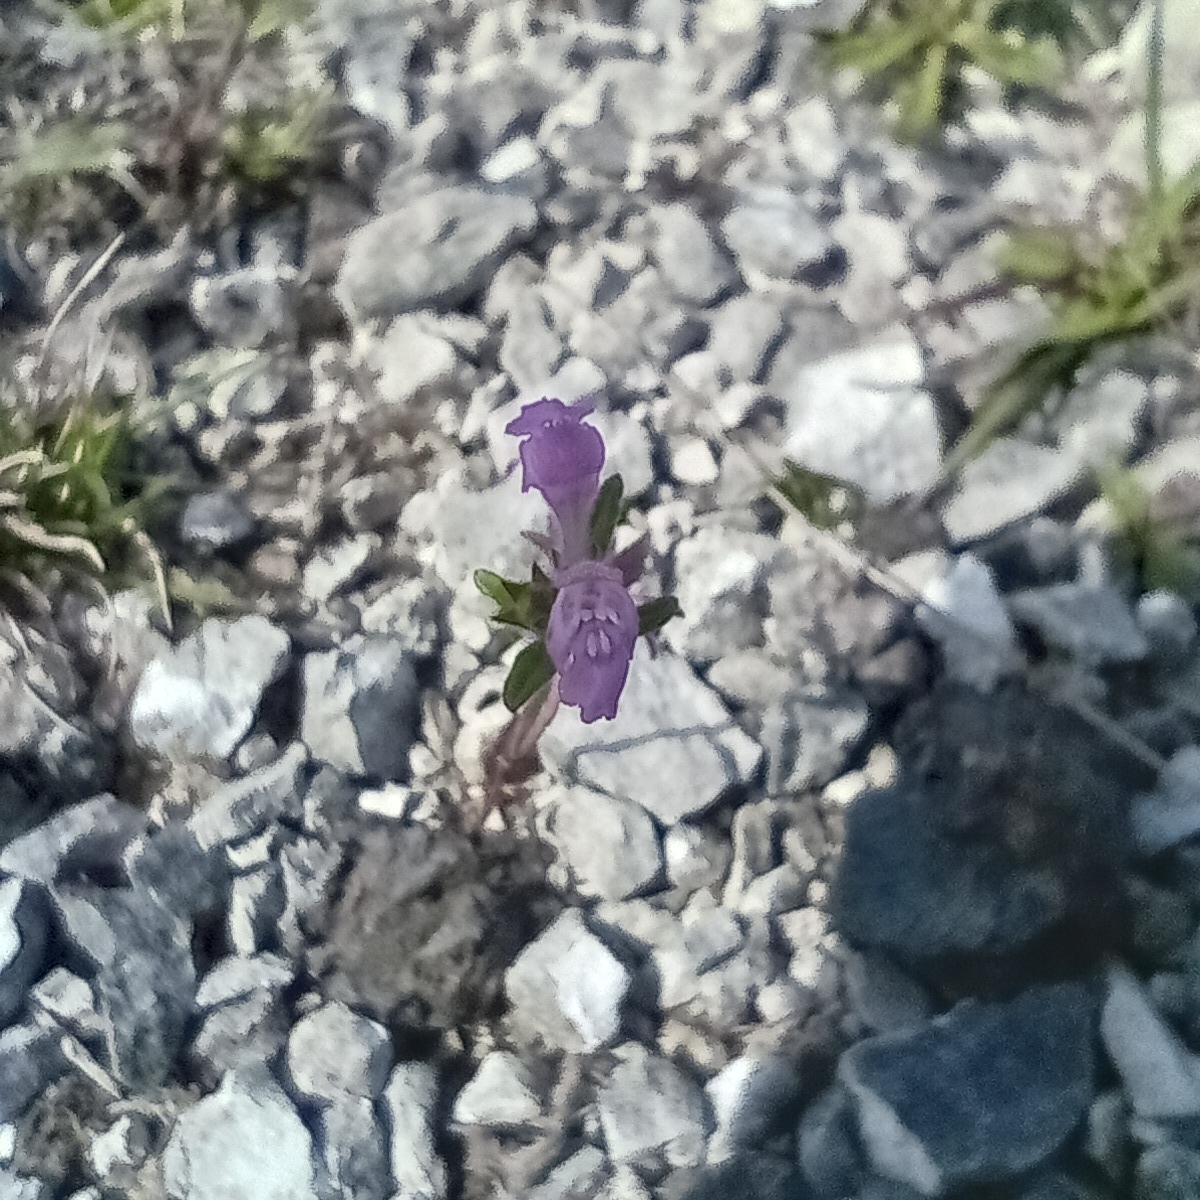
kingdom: Plantae
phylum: Tracheophyta
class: Magnoliopsida
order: Lamiales
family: Lamiaceae
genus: Galeopsis
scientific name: Galeopsis angustifolia
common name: Red hemp-nettle
